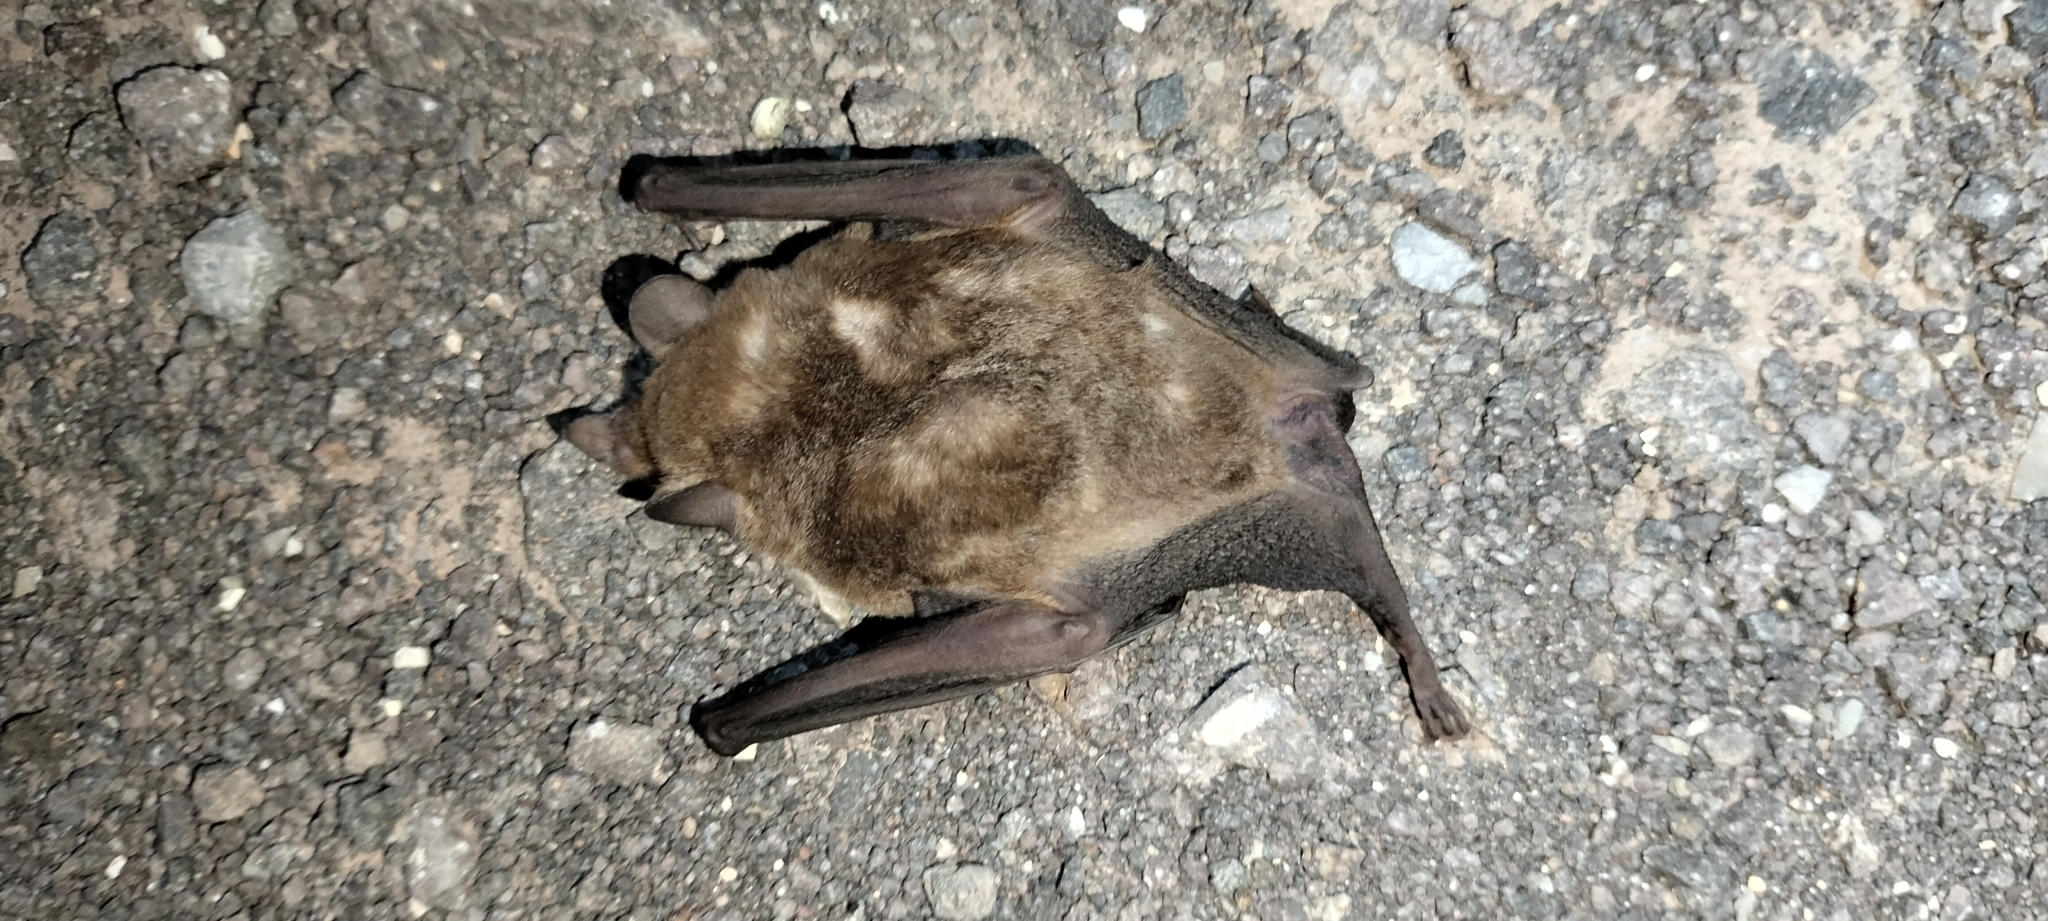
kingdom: Animalia
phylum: Chordata
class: Mammalia
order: Chiroptera
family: Phyllostomidae
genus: Glossophaga
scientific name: Glossophaga soricina
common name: Pallas's long-tongued bat
